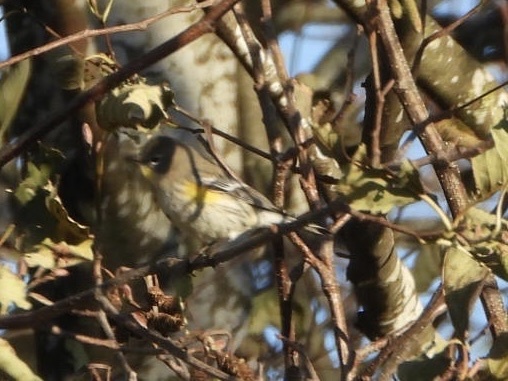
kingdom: Animalia
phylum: Chordata
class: Aves
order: Passeriformes
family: Parulidae
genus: Setophaga
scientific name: Setophaga auduboni
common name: Audubon's warbler
